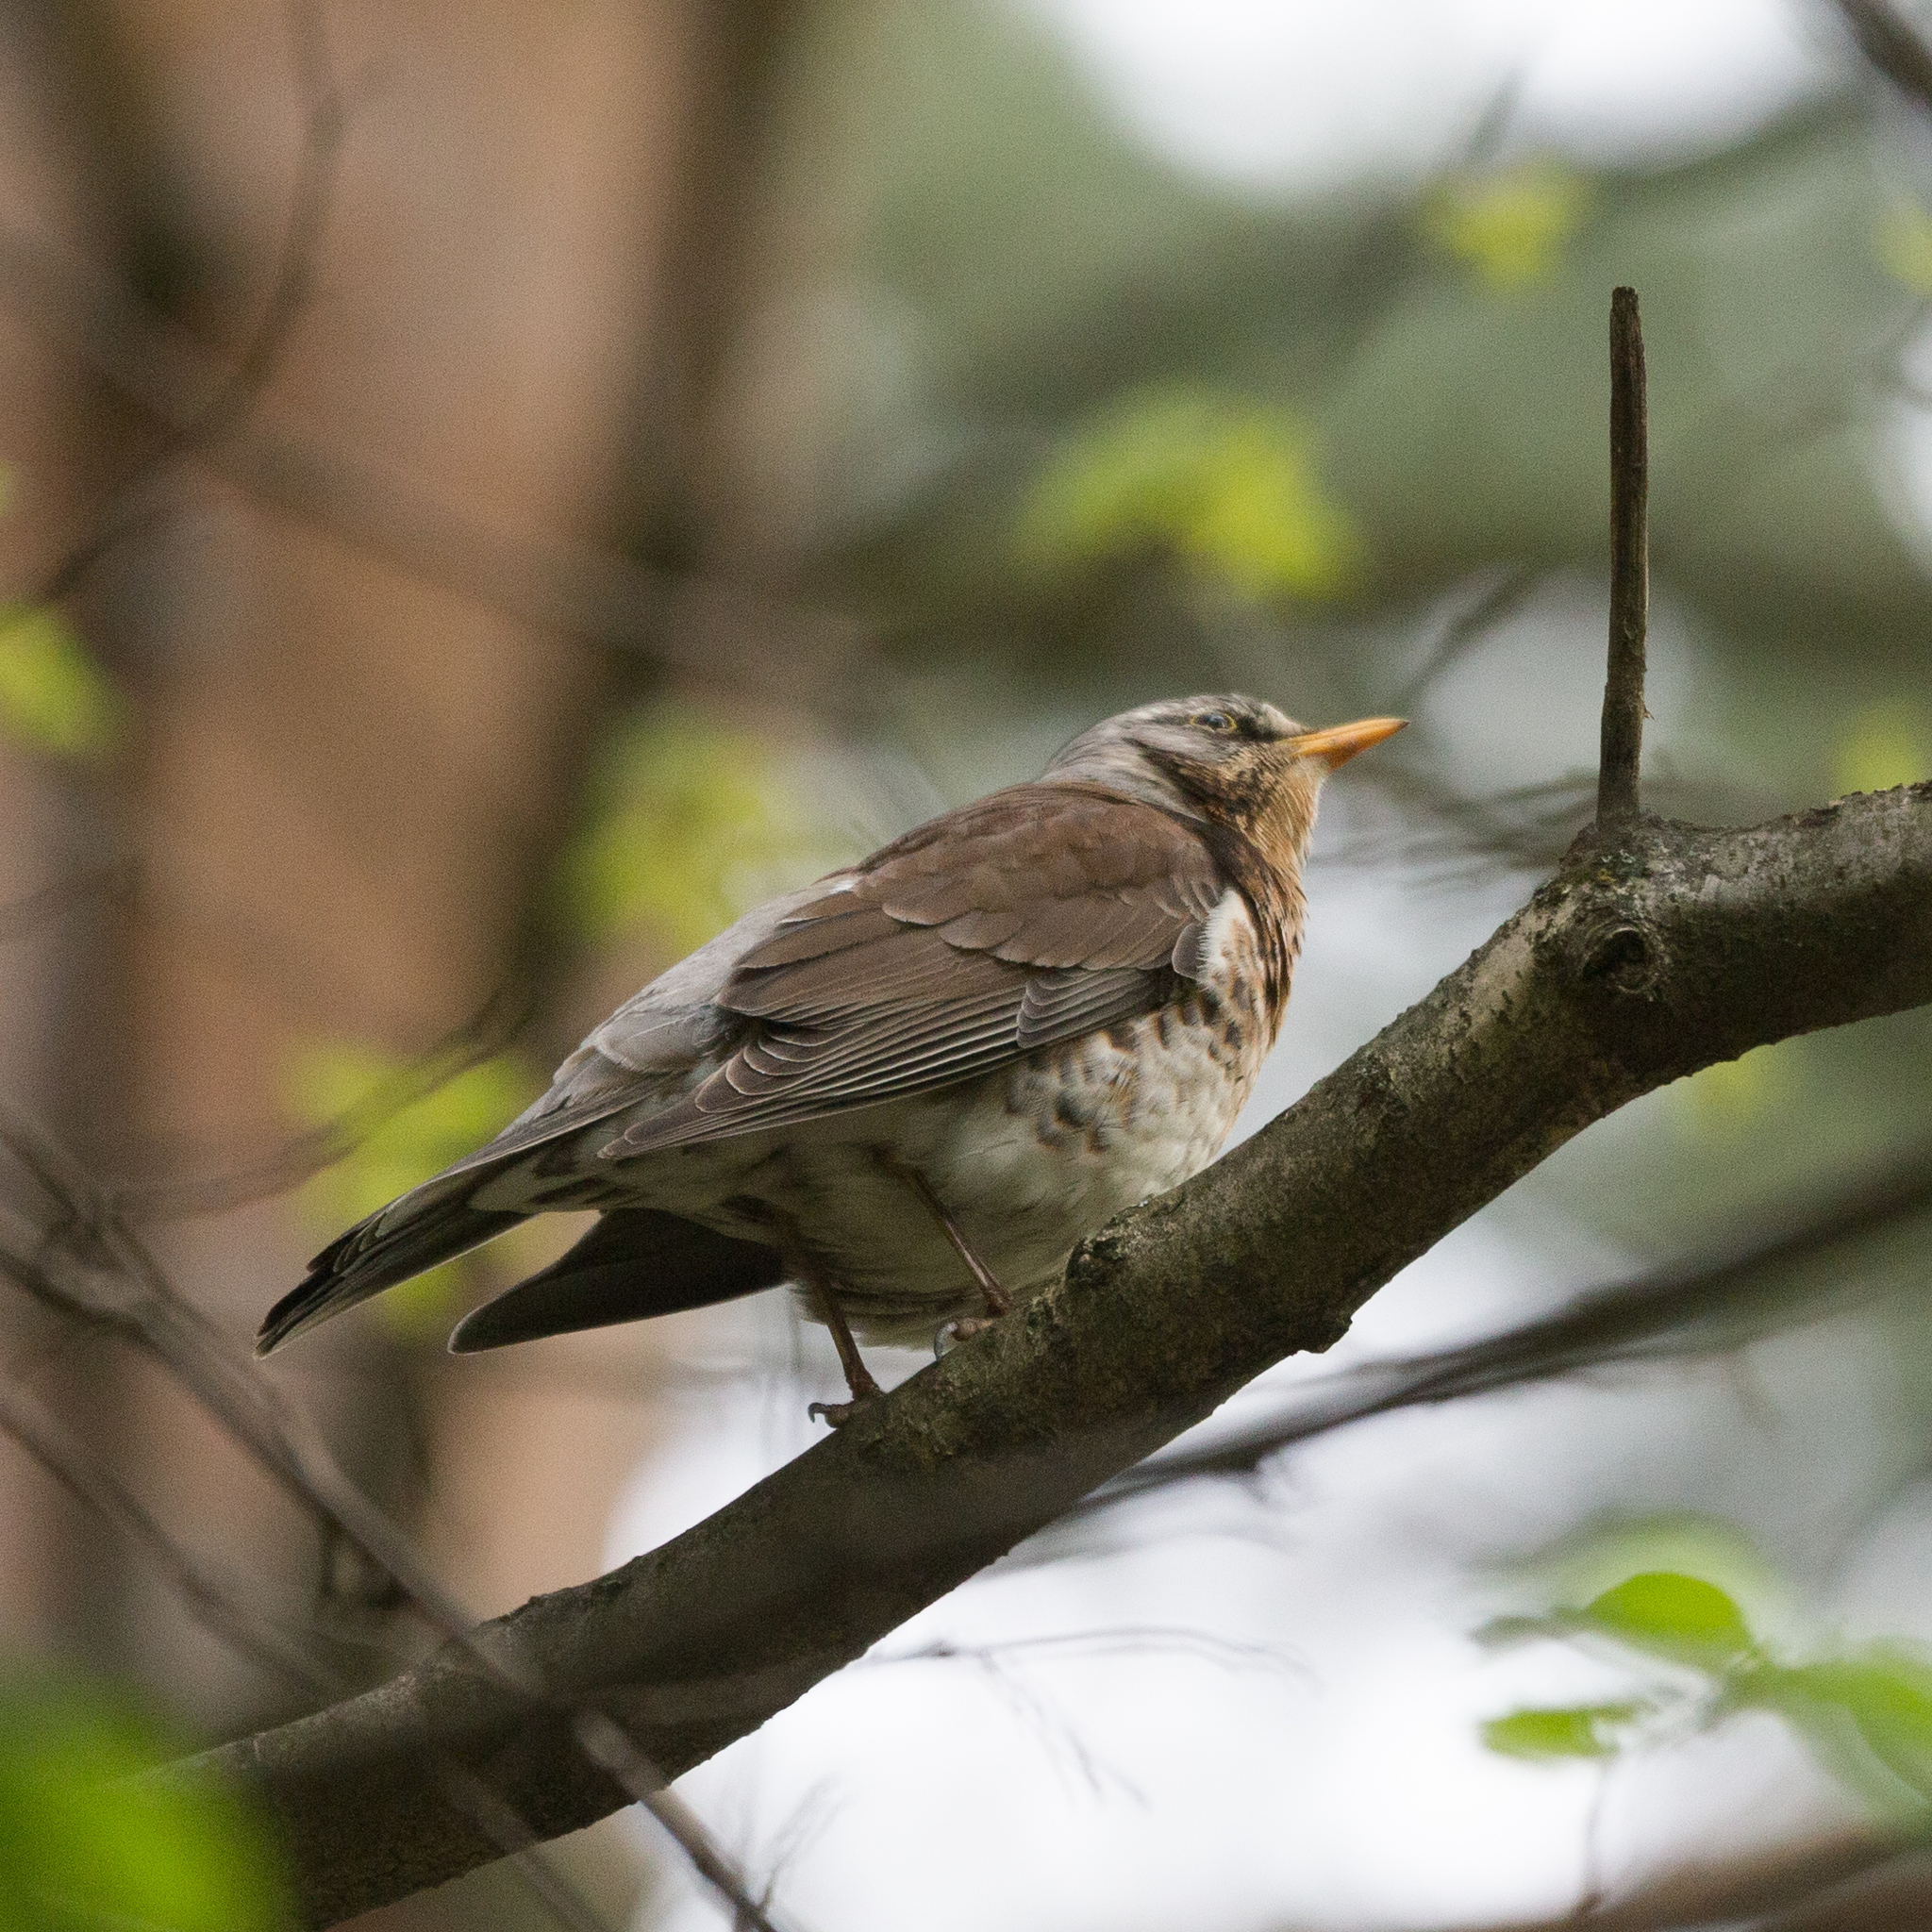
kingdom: Animalia
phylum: Chordata
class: Aves
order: Passeriformes
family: Turdidae
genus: Turdus
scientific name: Turdus pilaris
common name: Fieldfare
